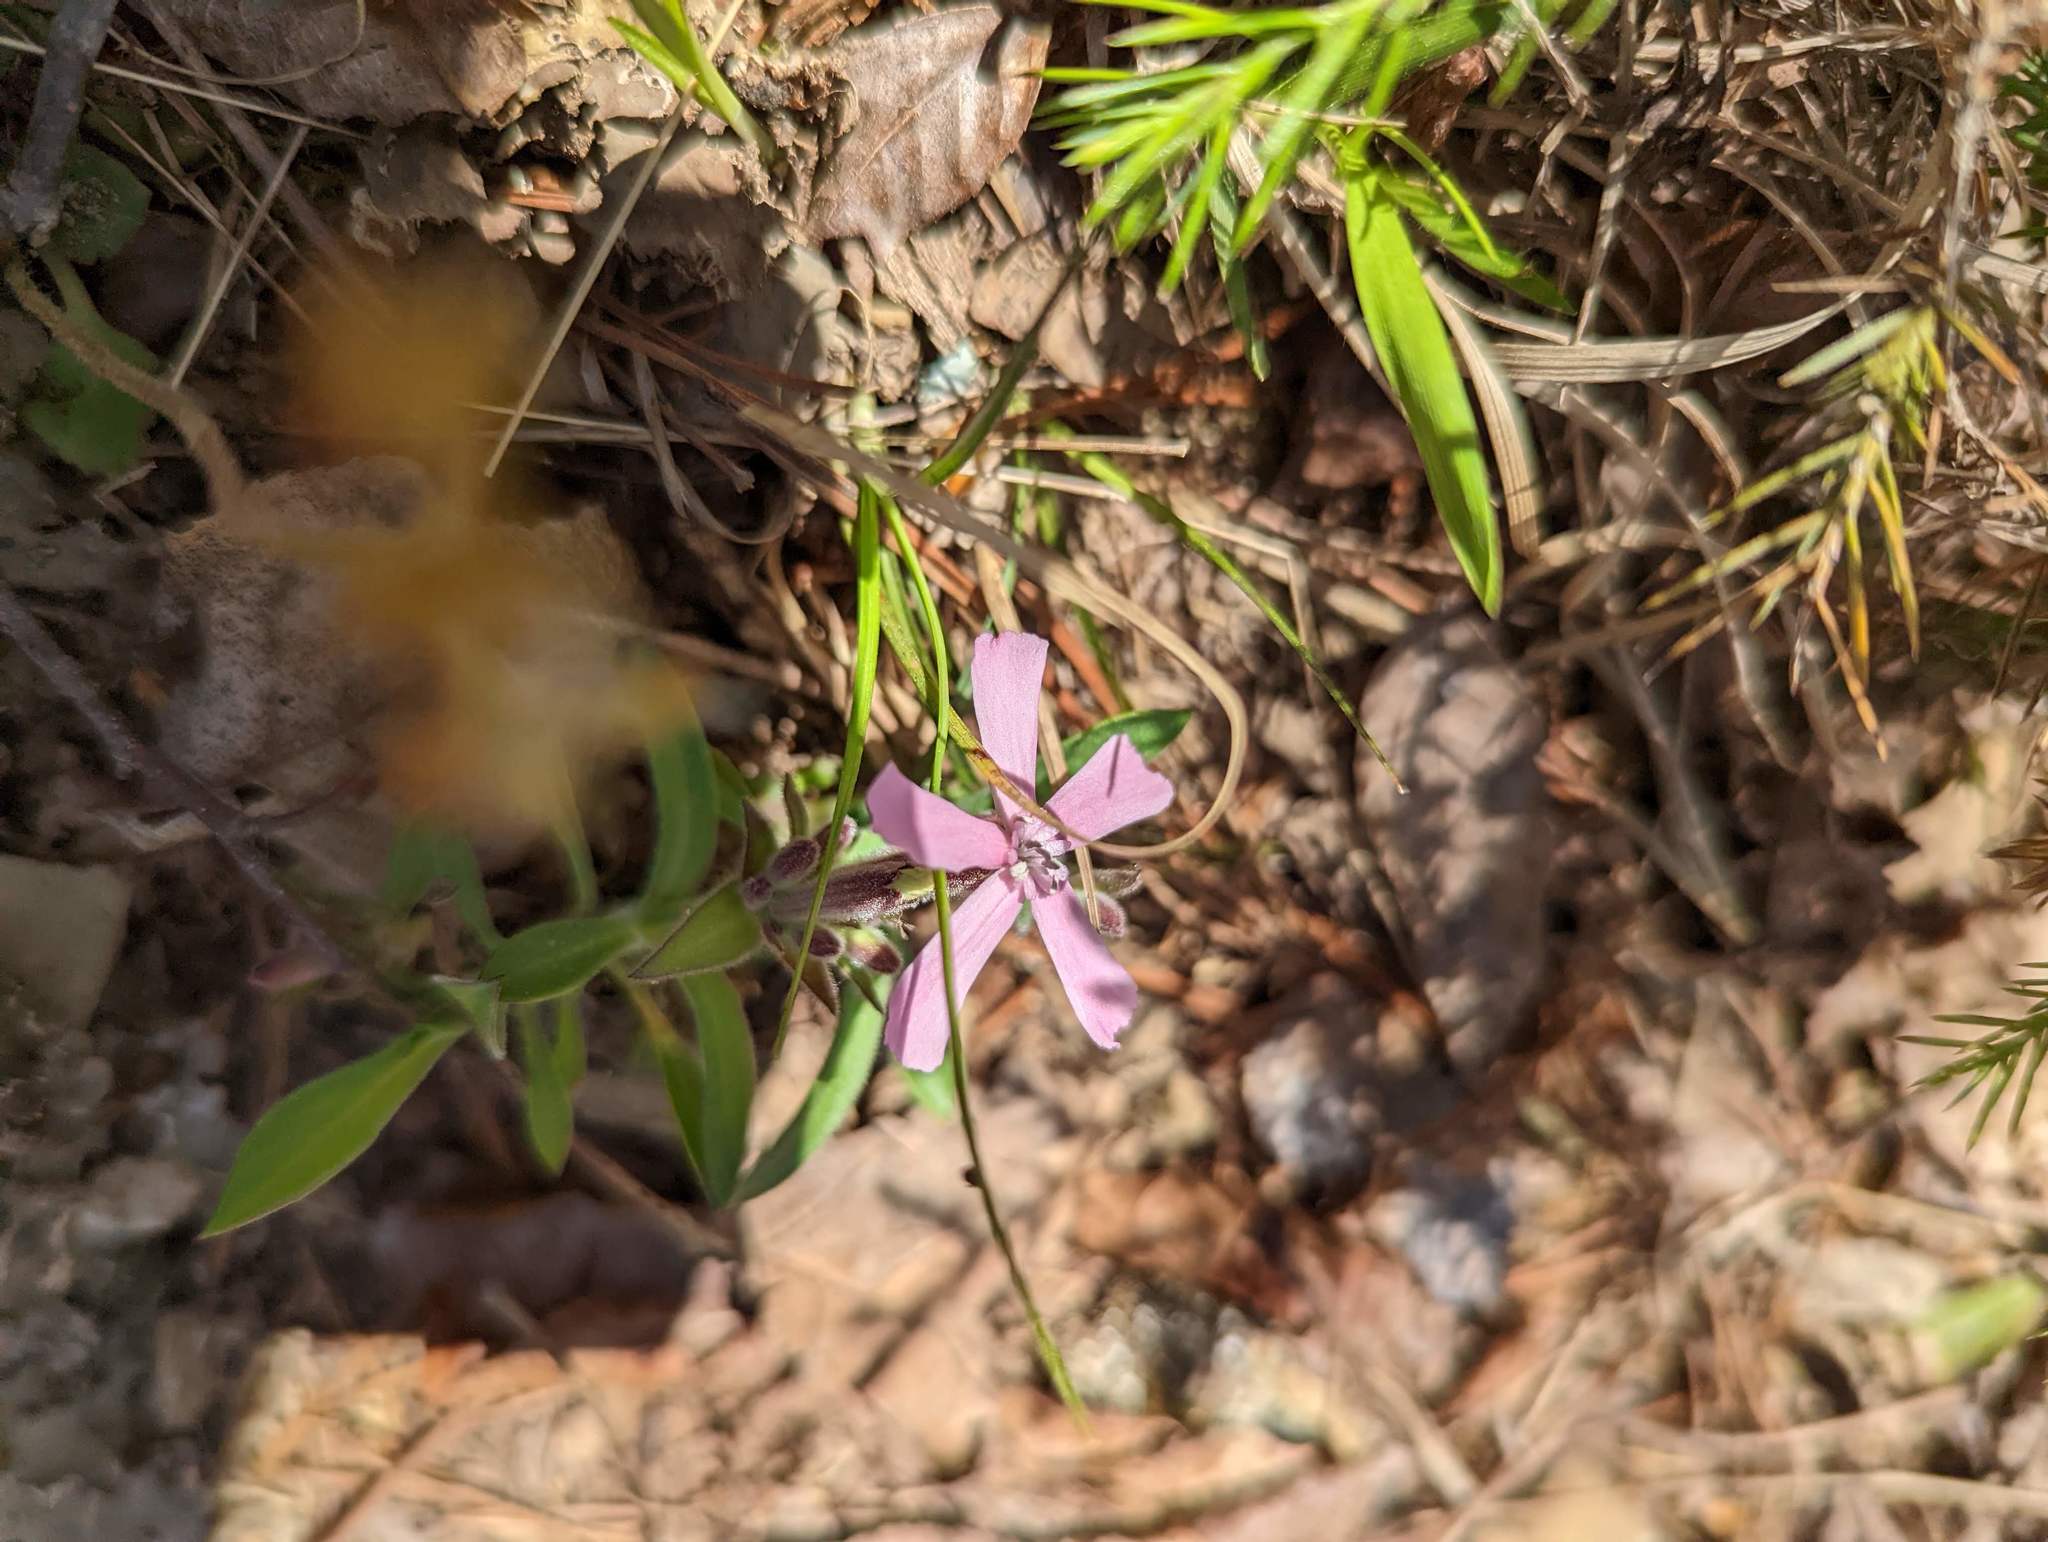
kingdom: Plantae
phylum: Tracheophyta
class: Magnoliopsida
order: Caryophyllales
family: Caryophyllaceae
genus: Silene
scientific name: Silene caroliniana
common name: Sticky catchfly
